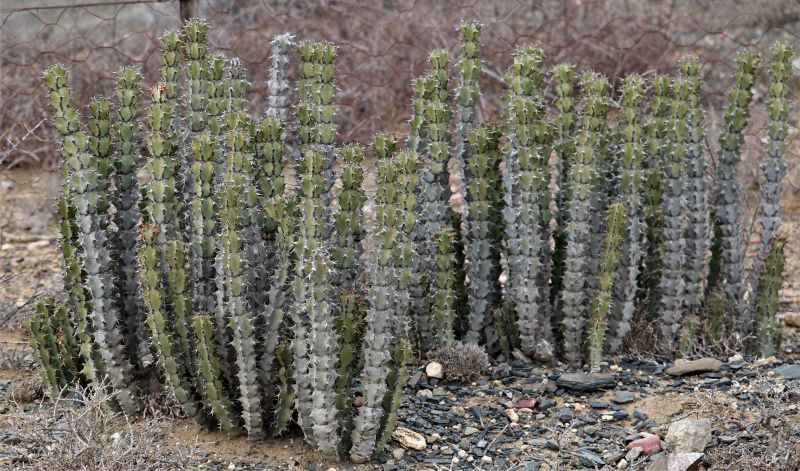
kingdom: Plantae
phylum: Tracheophyta
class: Magnoliopsida
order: Malpighiales
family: Euphorbiaceae
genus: Euphorbia
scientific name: Euphorbia radyeri
